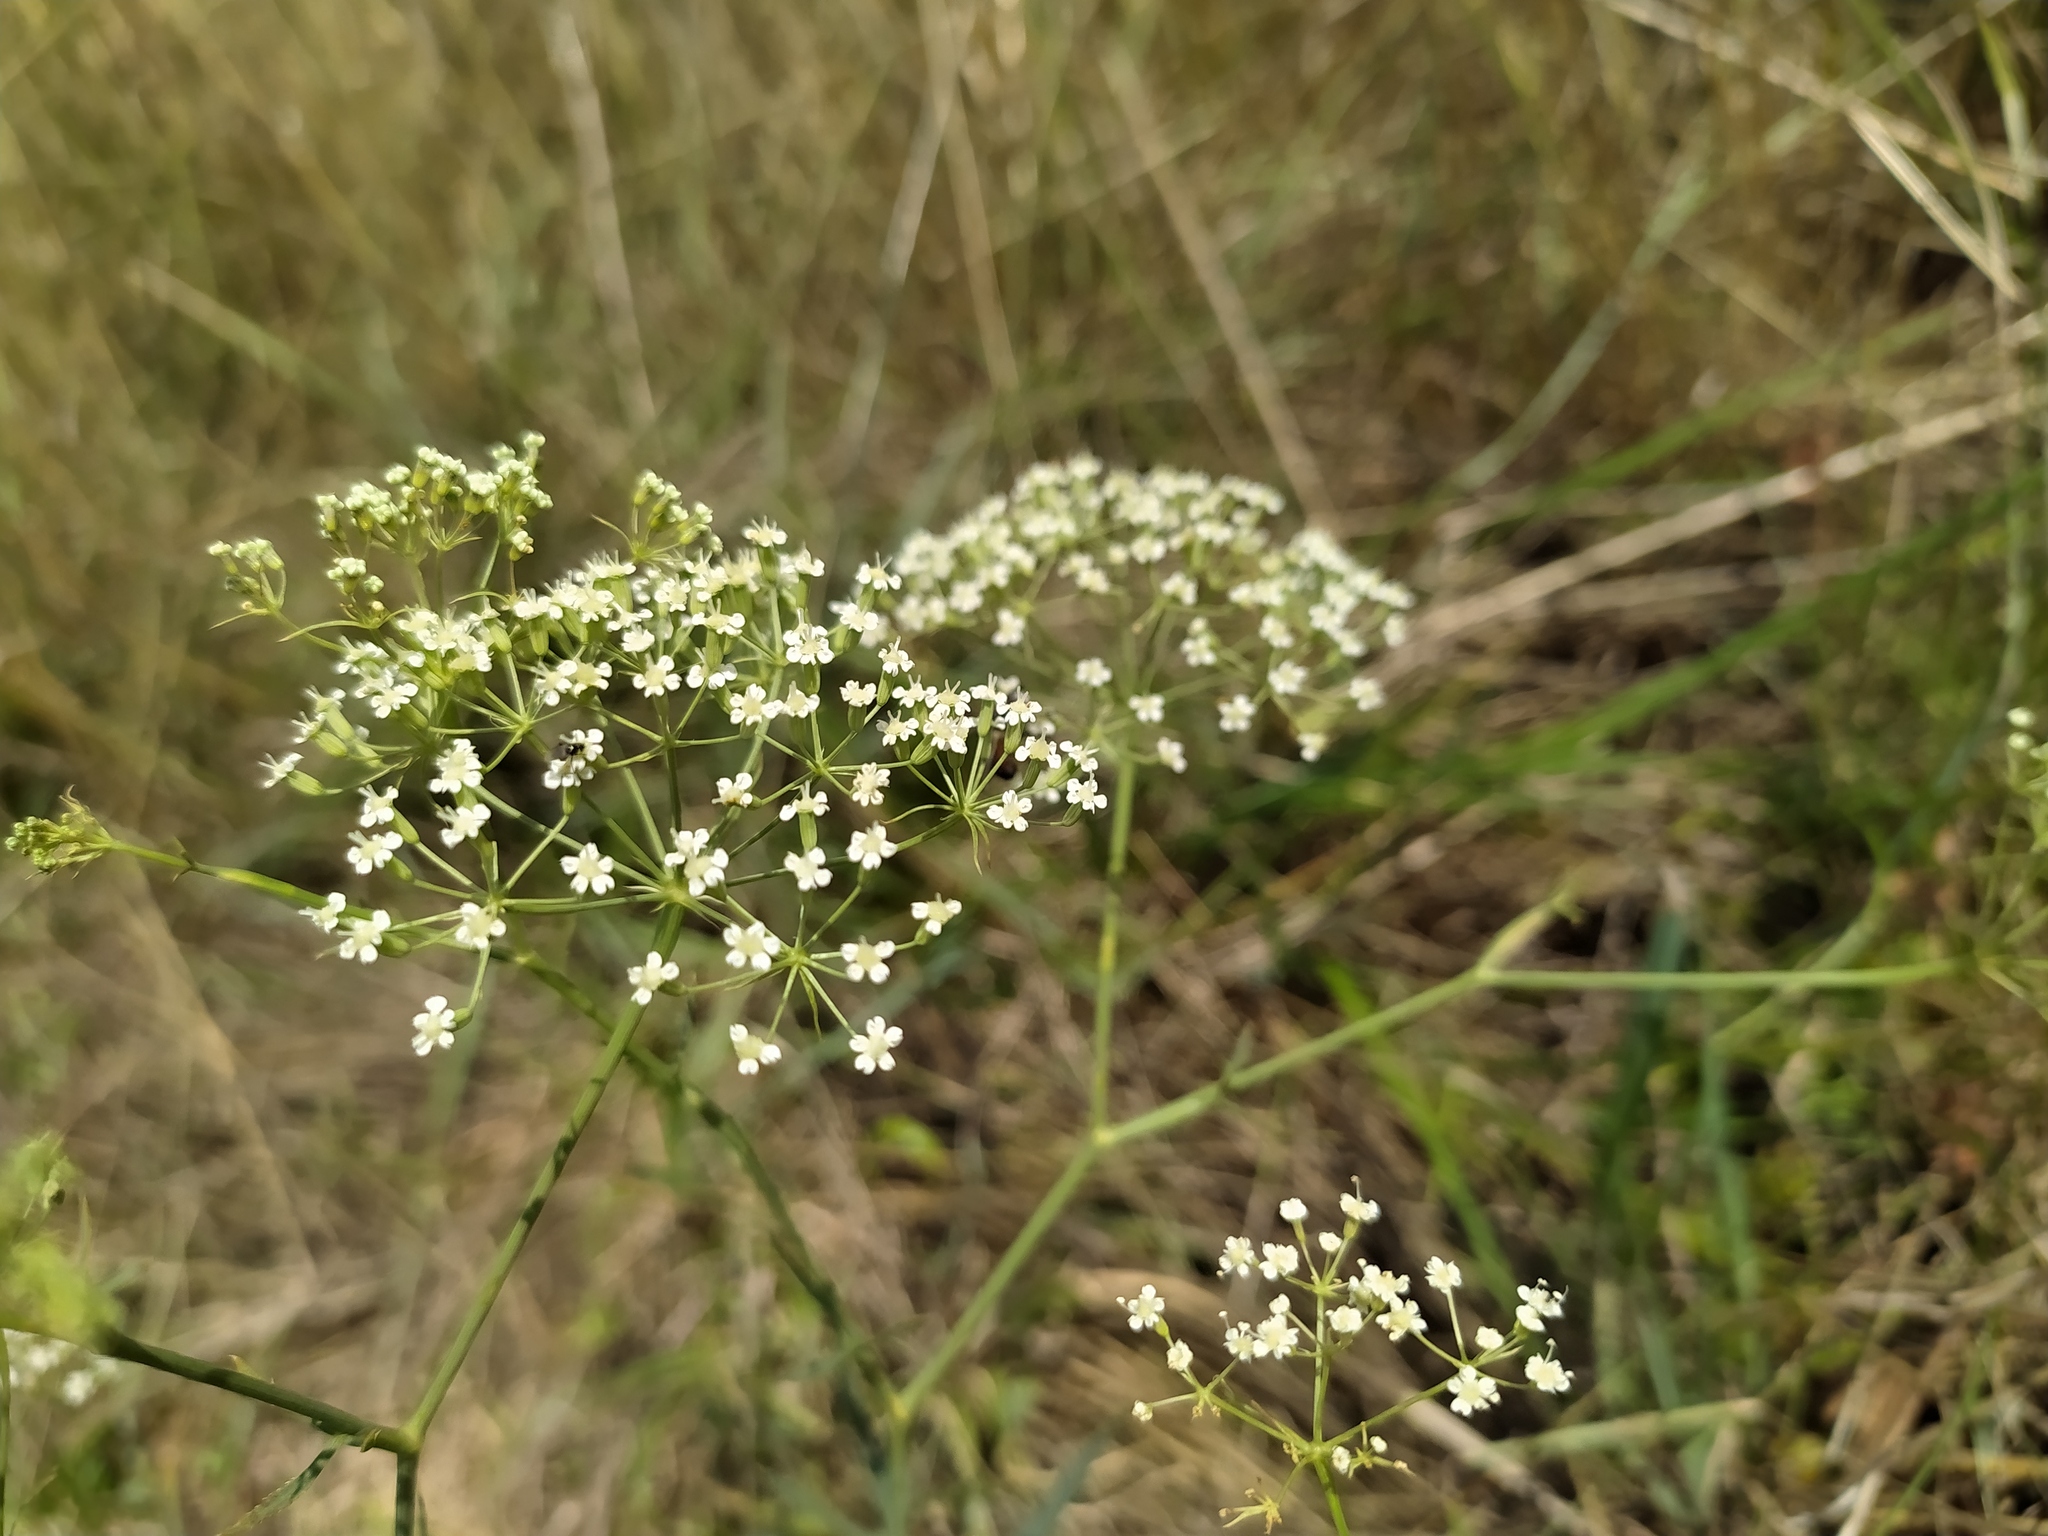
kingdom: Plantae
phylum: Tracheophyta
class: Magnoliopsida
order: Apiales
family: Apiaceae
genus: Falcaria
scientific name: Falcaria vulgaris
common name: Longleaf
